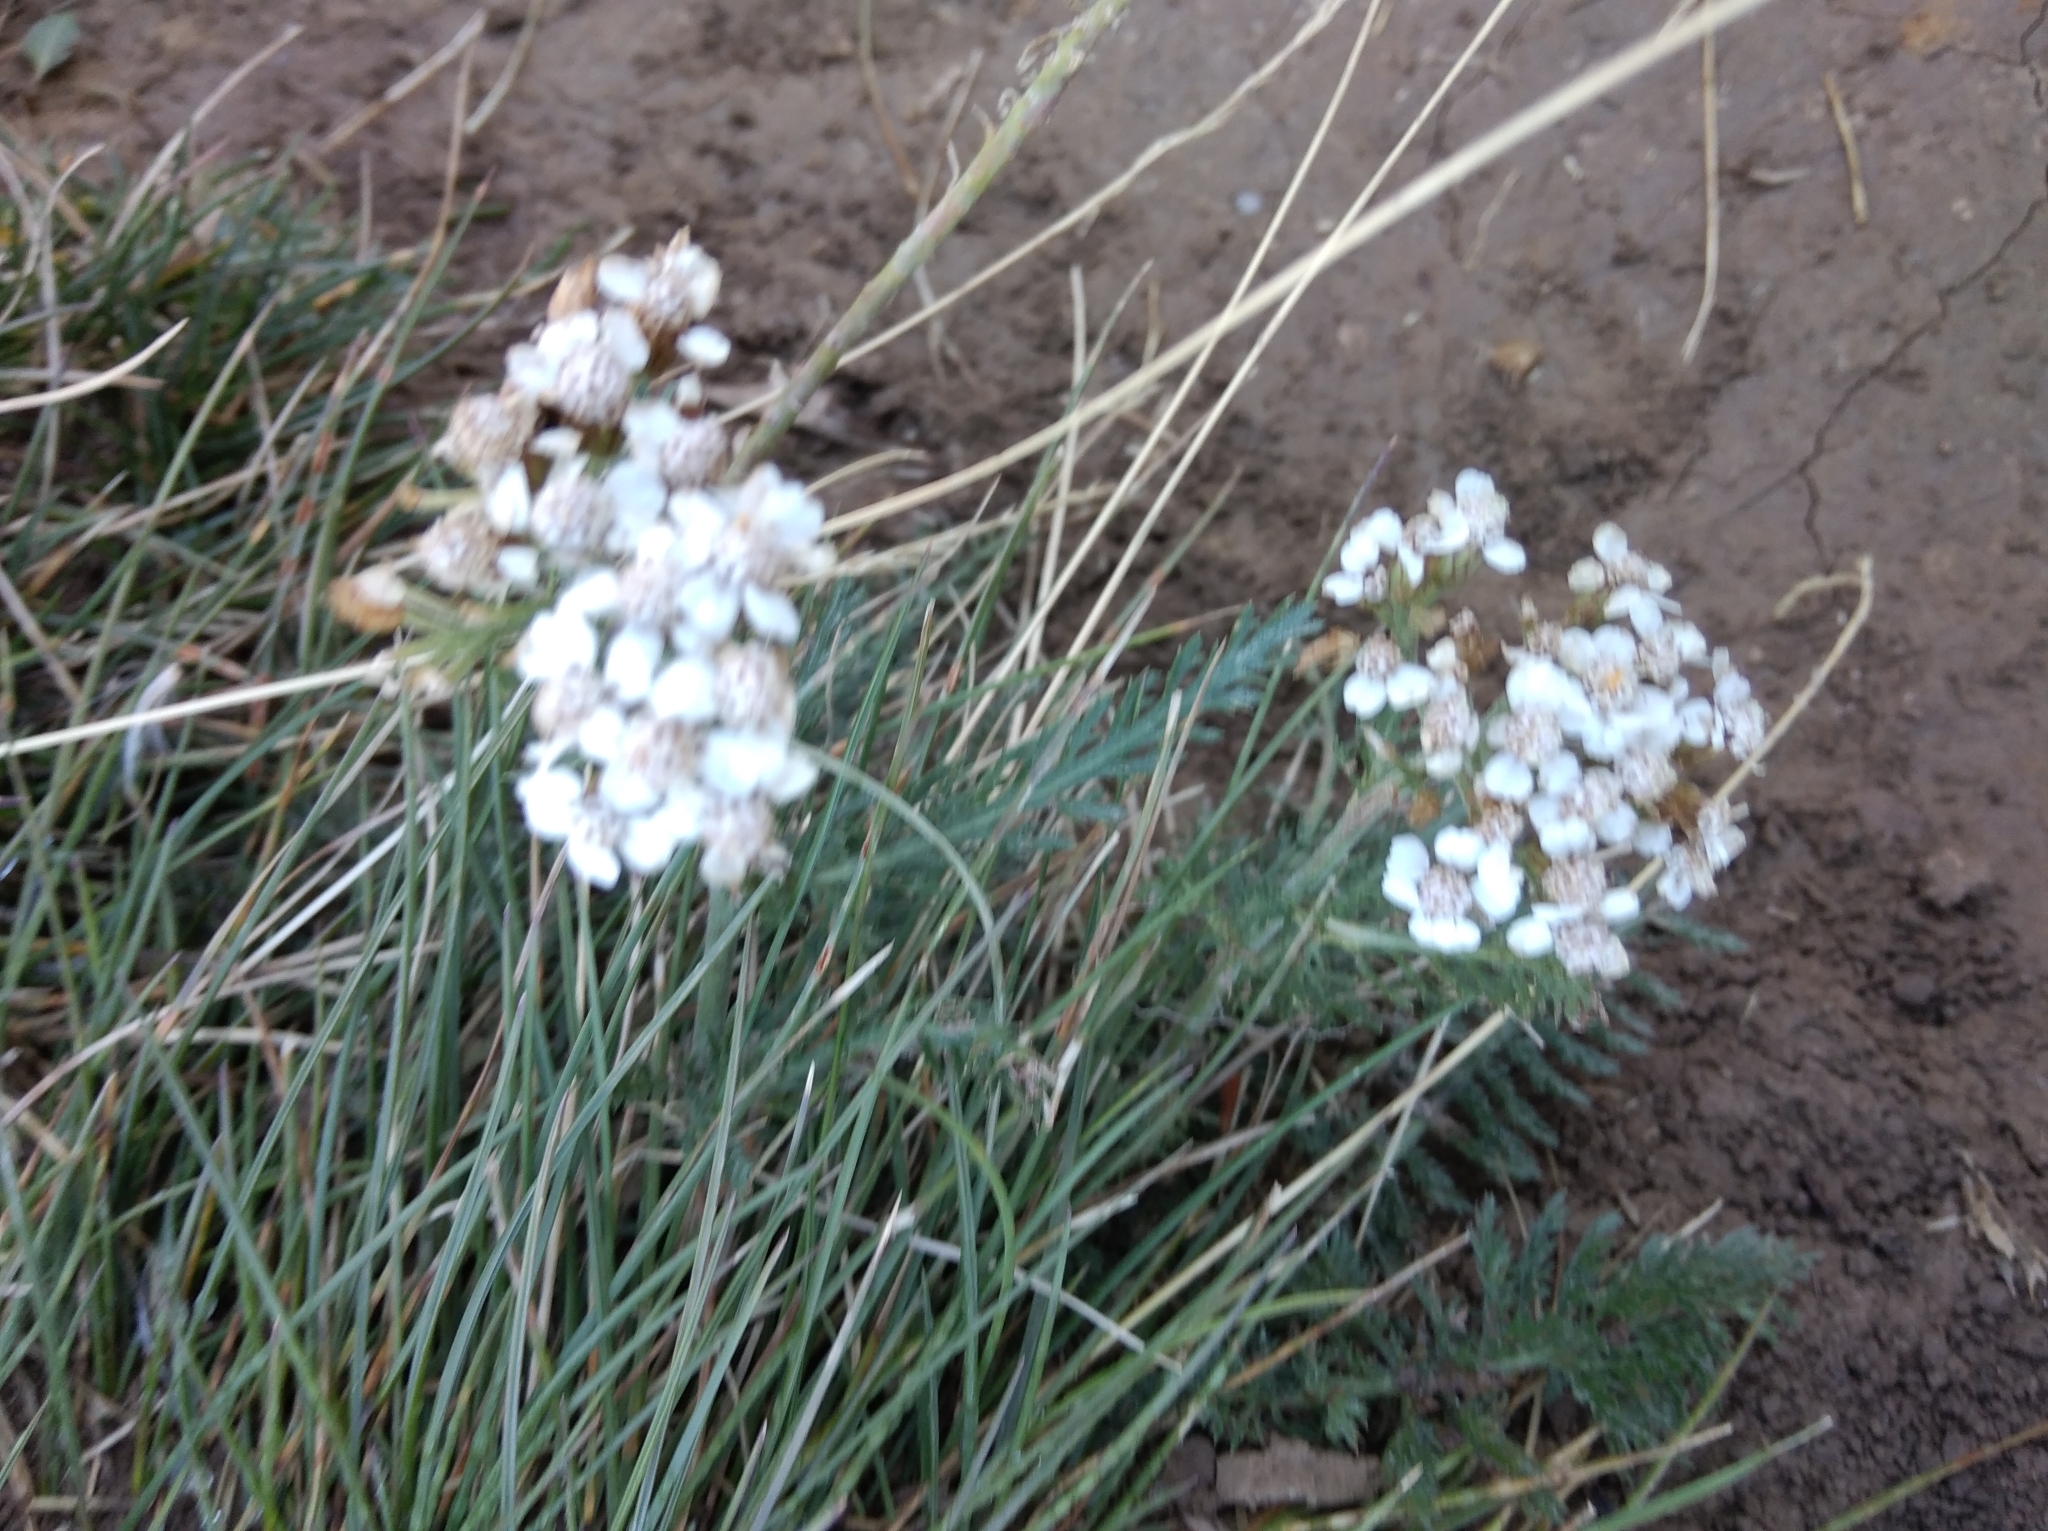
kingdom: Plantae
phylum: Tracheophyta
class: Magnoliopsida
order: Asterales
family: Asteraceae
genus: Achillea
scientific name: Achillea millefolium
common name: Yarrow
